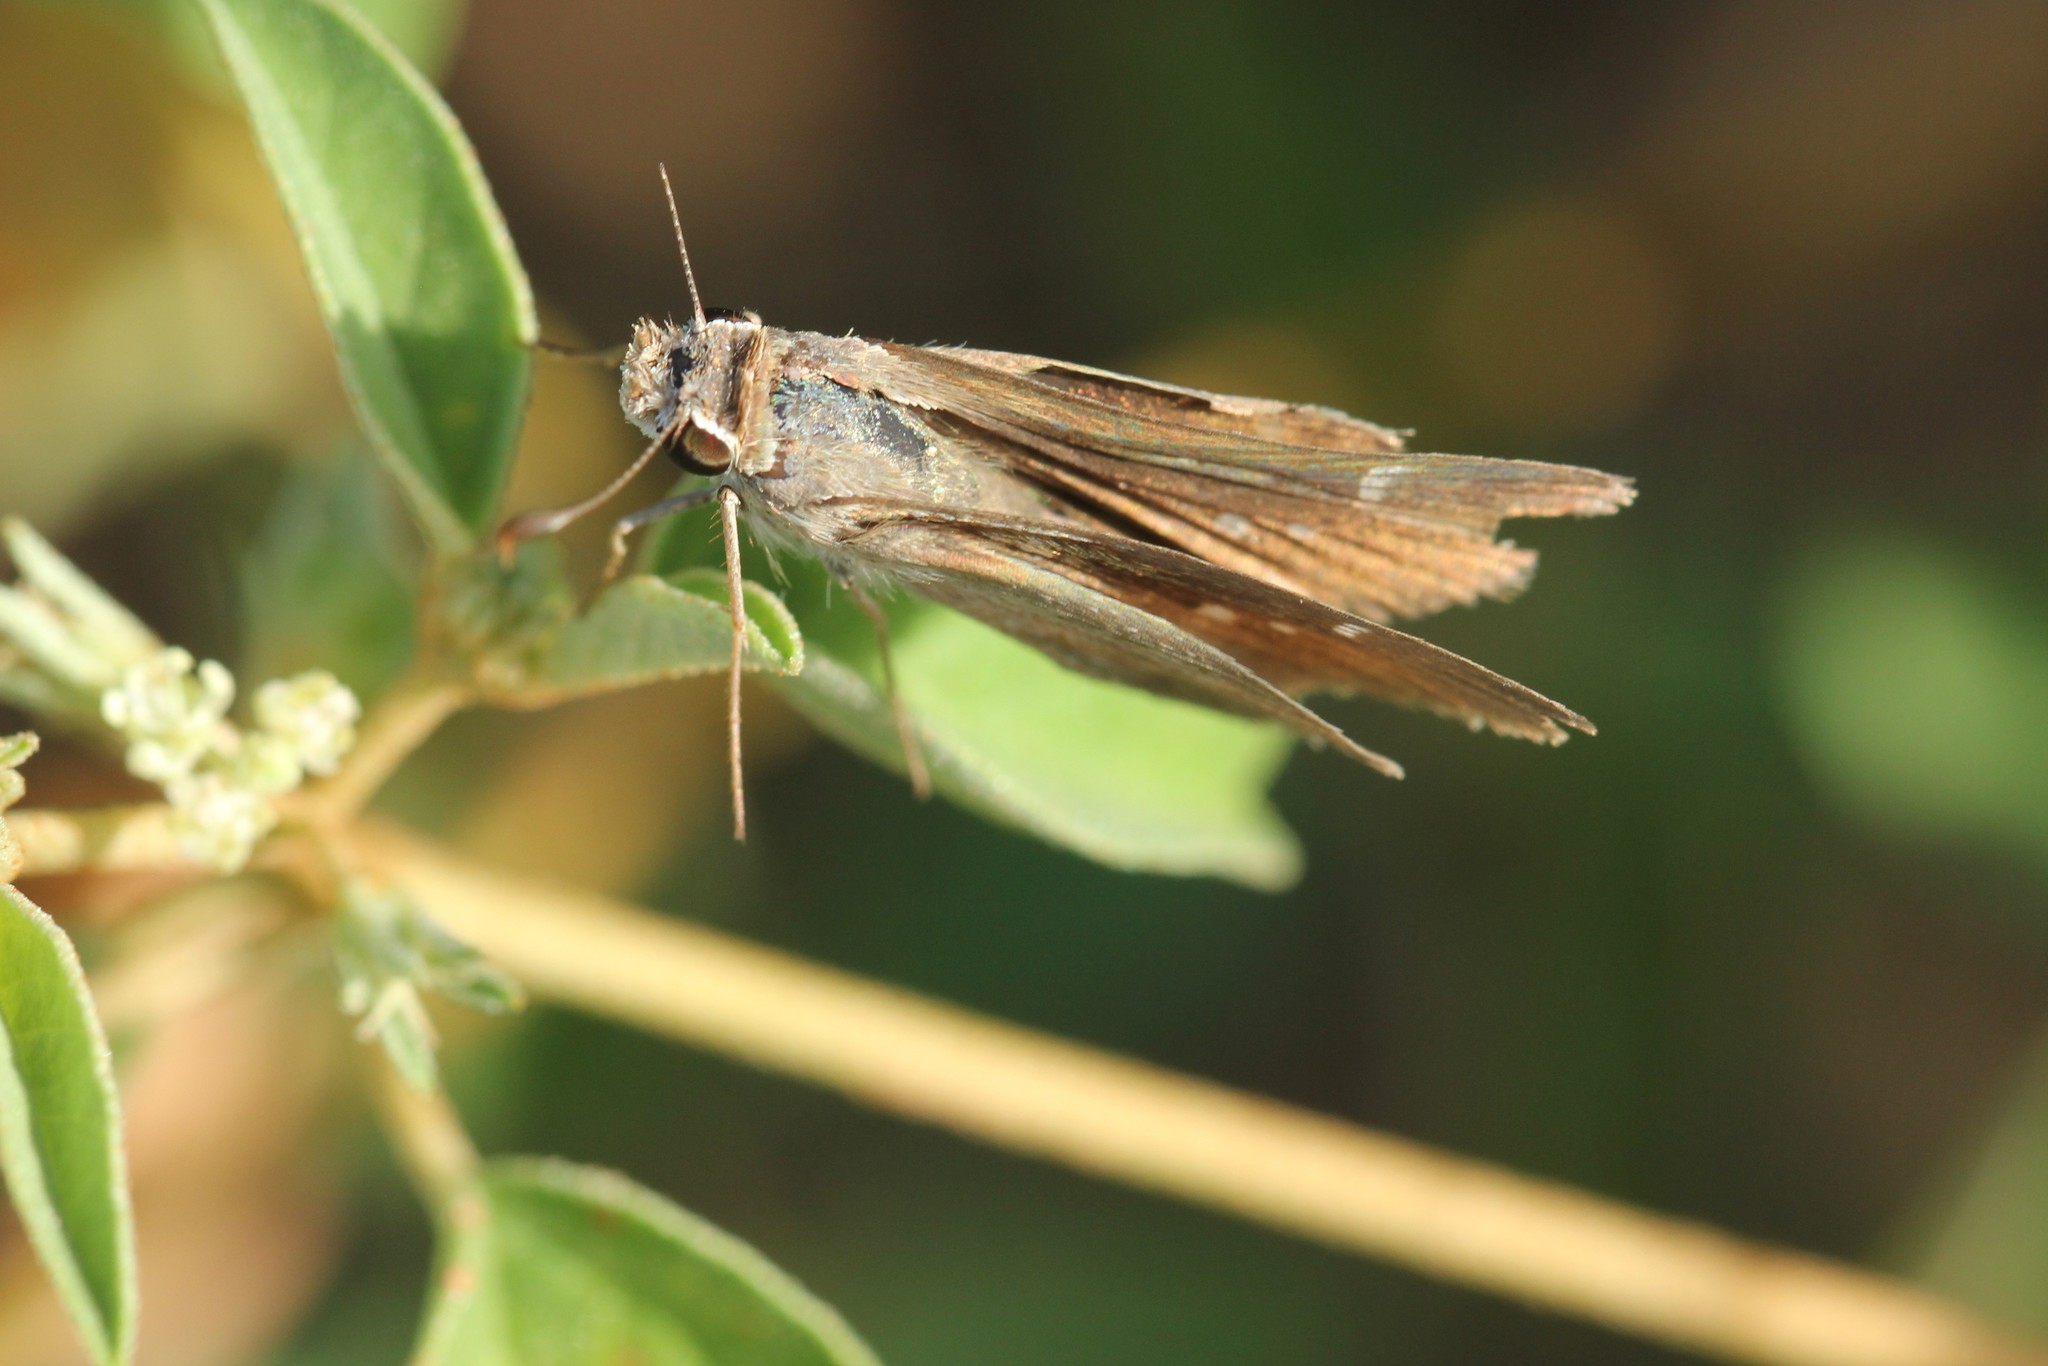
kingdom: Animalia
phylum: Arthropoda
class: Insecta
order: Lepidoptera
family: Hesperiidae
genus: Lerodea
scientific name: Lerodea eufala
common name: Eufala skipper
